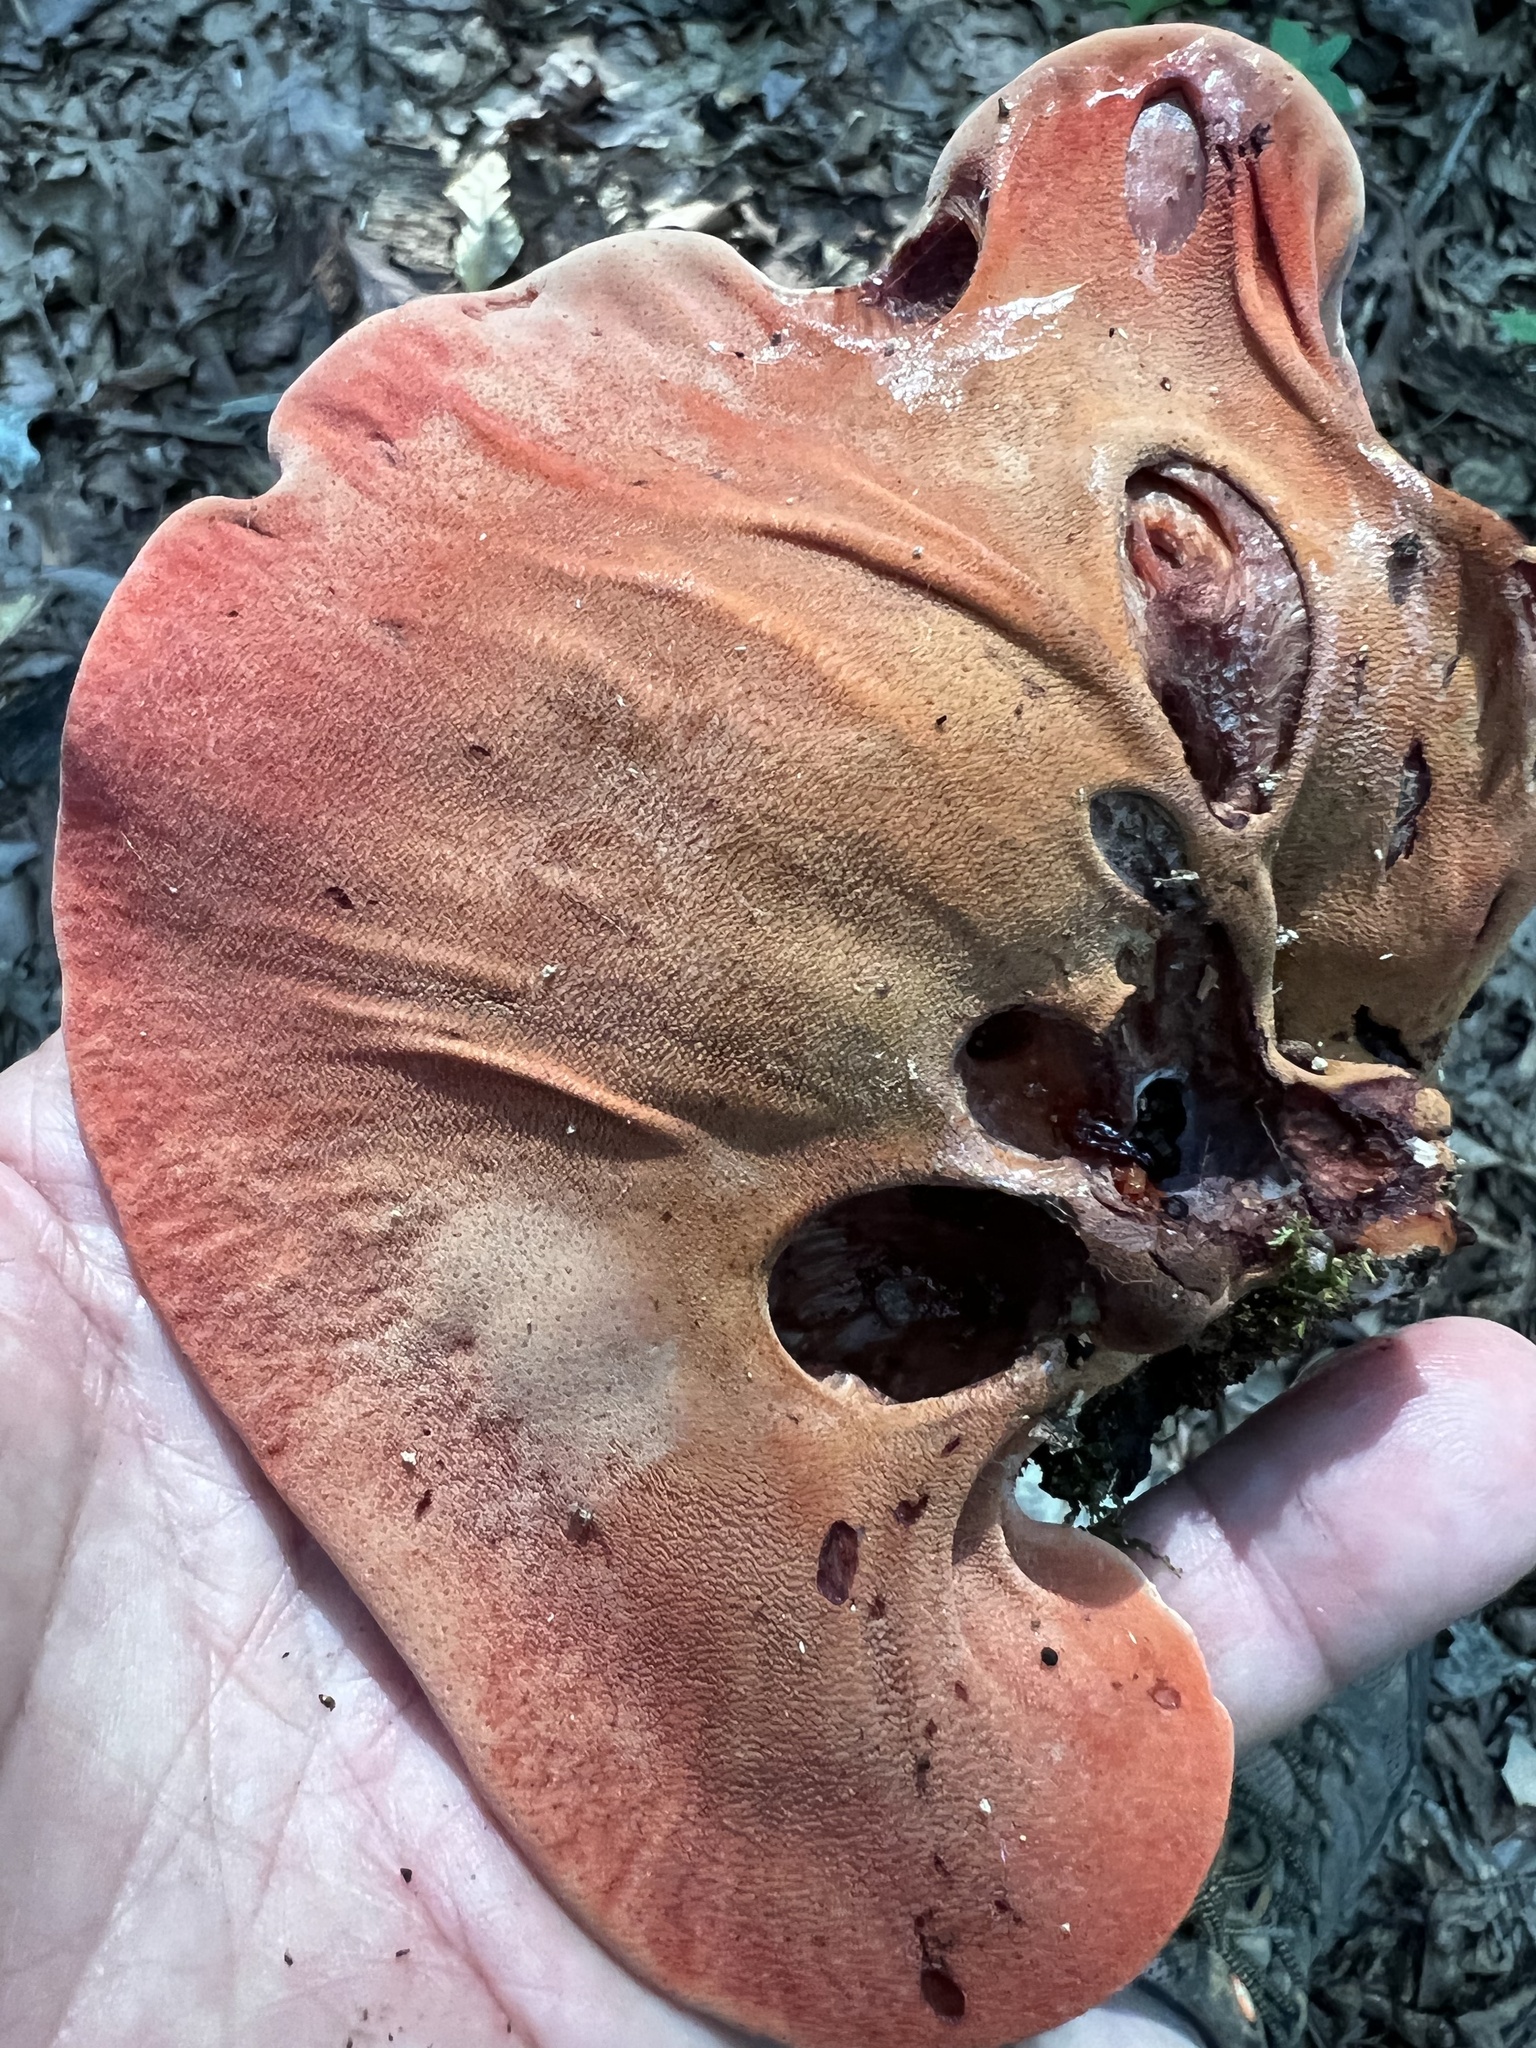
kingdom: Fungi
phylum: Basidiomycota
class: Agaricomycetes
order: Agaricales
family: Fistulinaceae
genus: Fistulina
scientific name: Fistulina hepatica
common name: Beef-steak fungus
